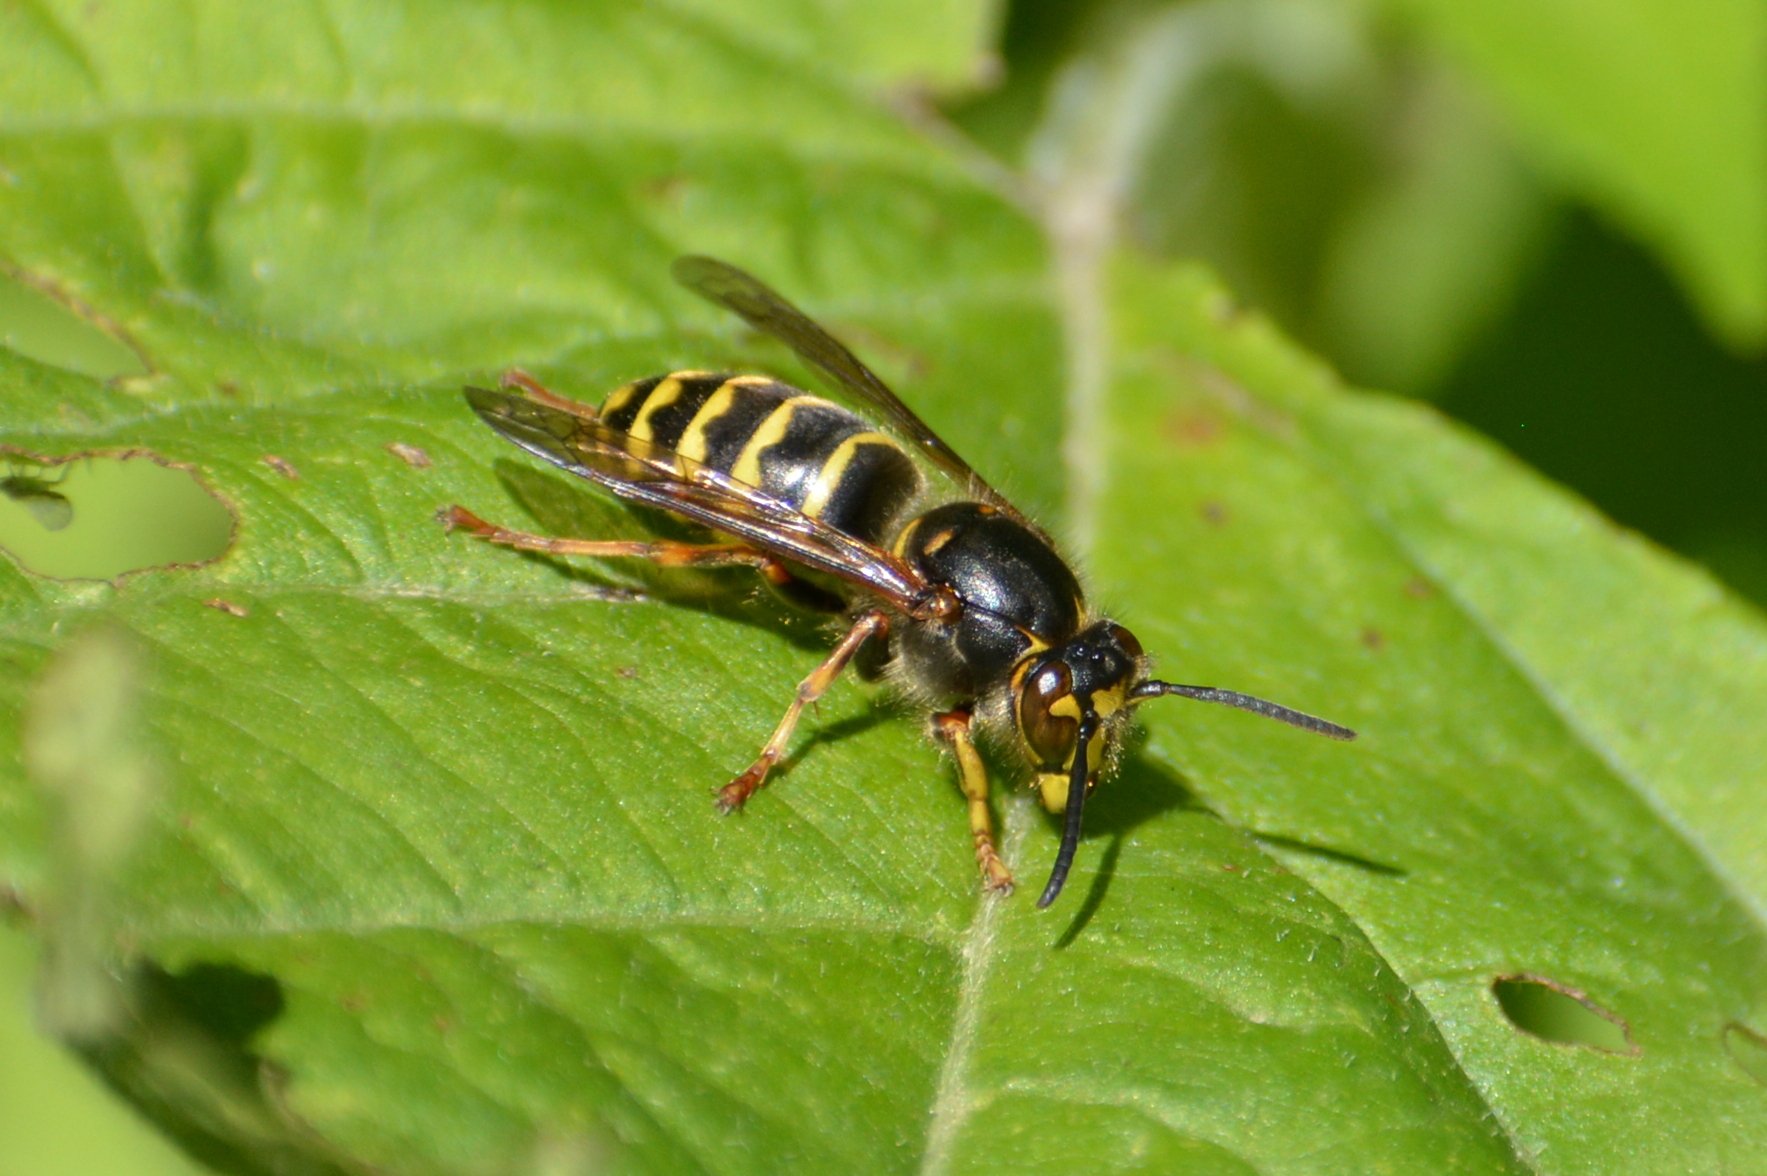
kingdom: Animalia
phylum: Arthropoda
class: Insecta
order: Hymenoptera
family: Vespidae
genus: Dolichovespula
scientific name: Dolichovespula media
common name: Median wasp
